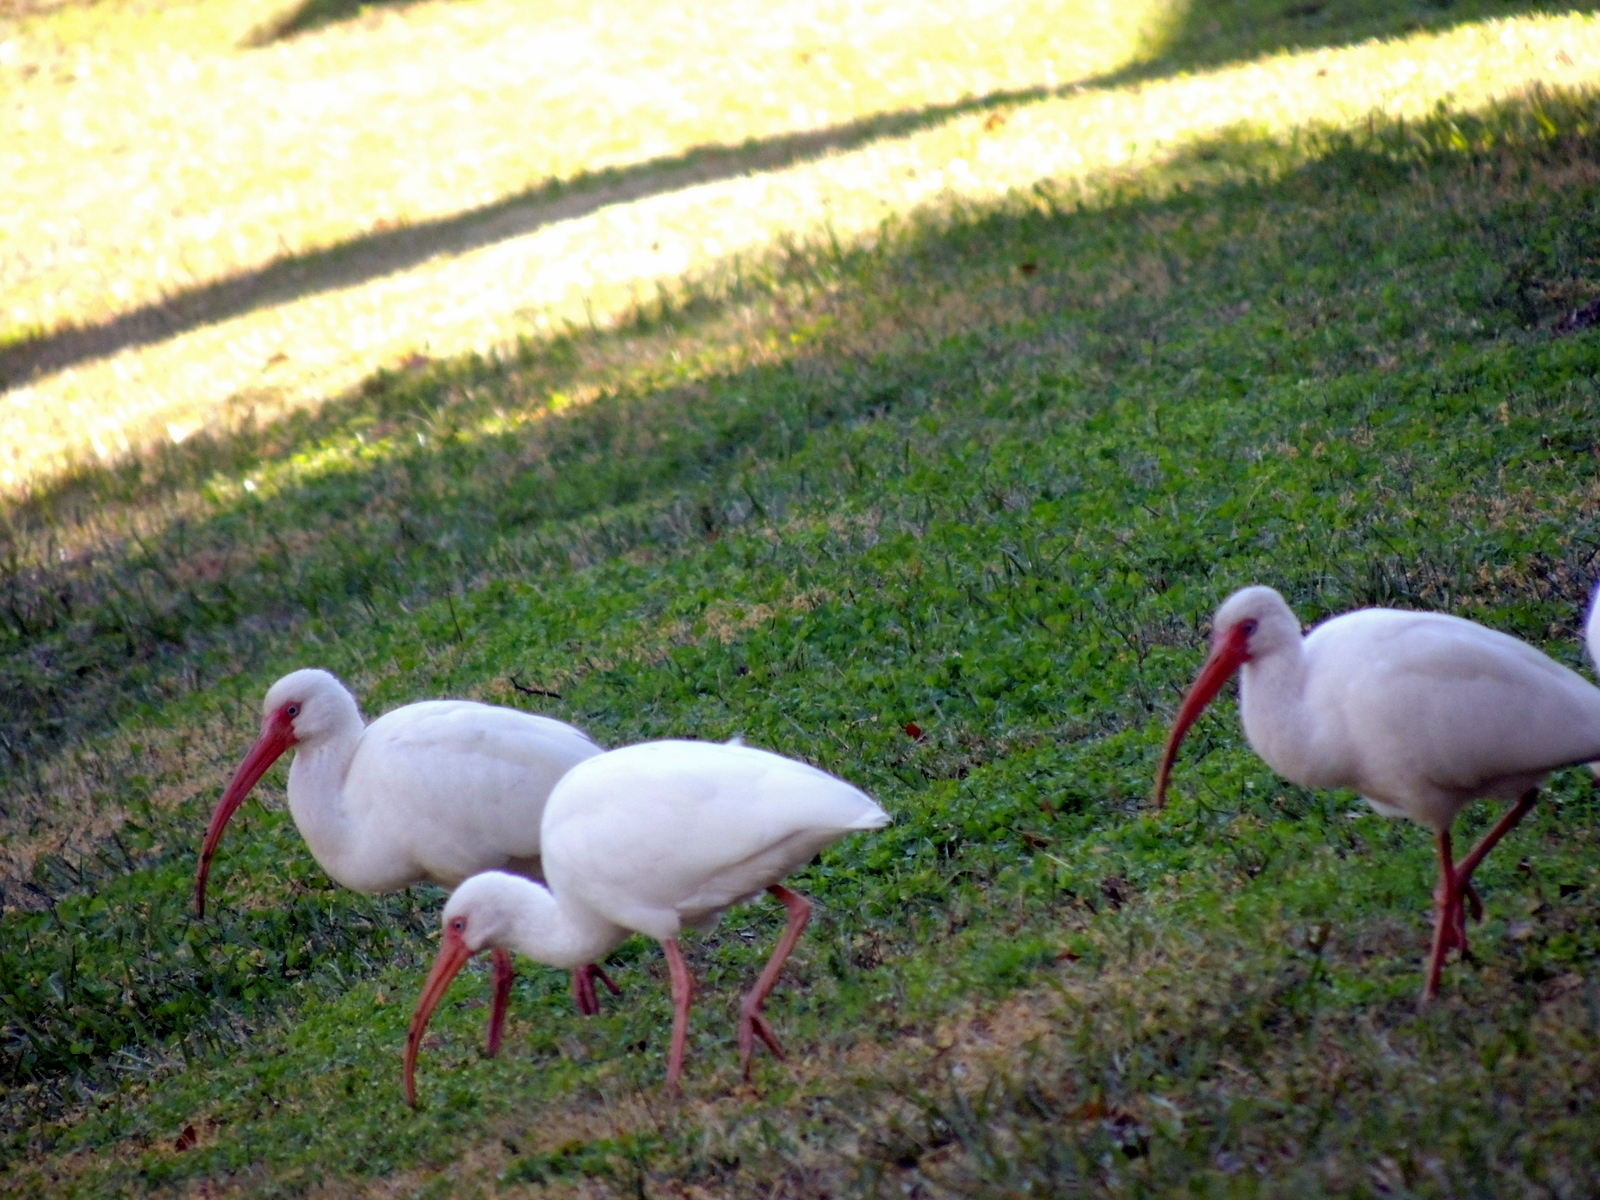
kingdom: Animalia
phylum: Chordata
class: Aves
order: Pelecaniformes
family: Threskiornithidae
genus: Eudocimus
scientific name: Eudocimus albus
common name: White ibis
